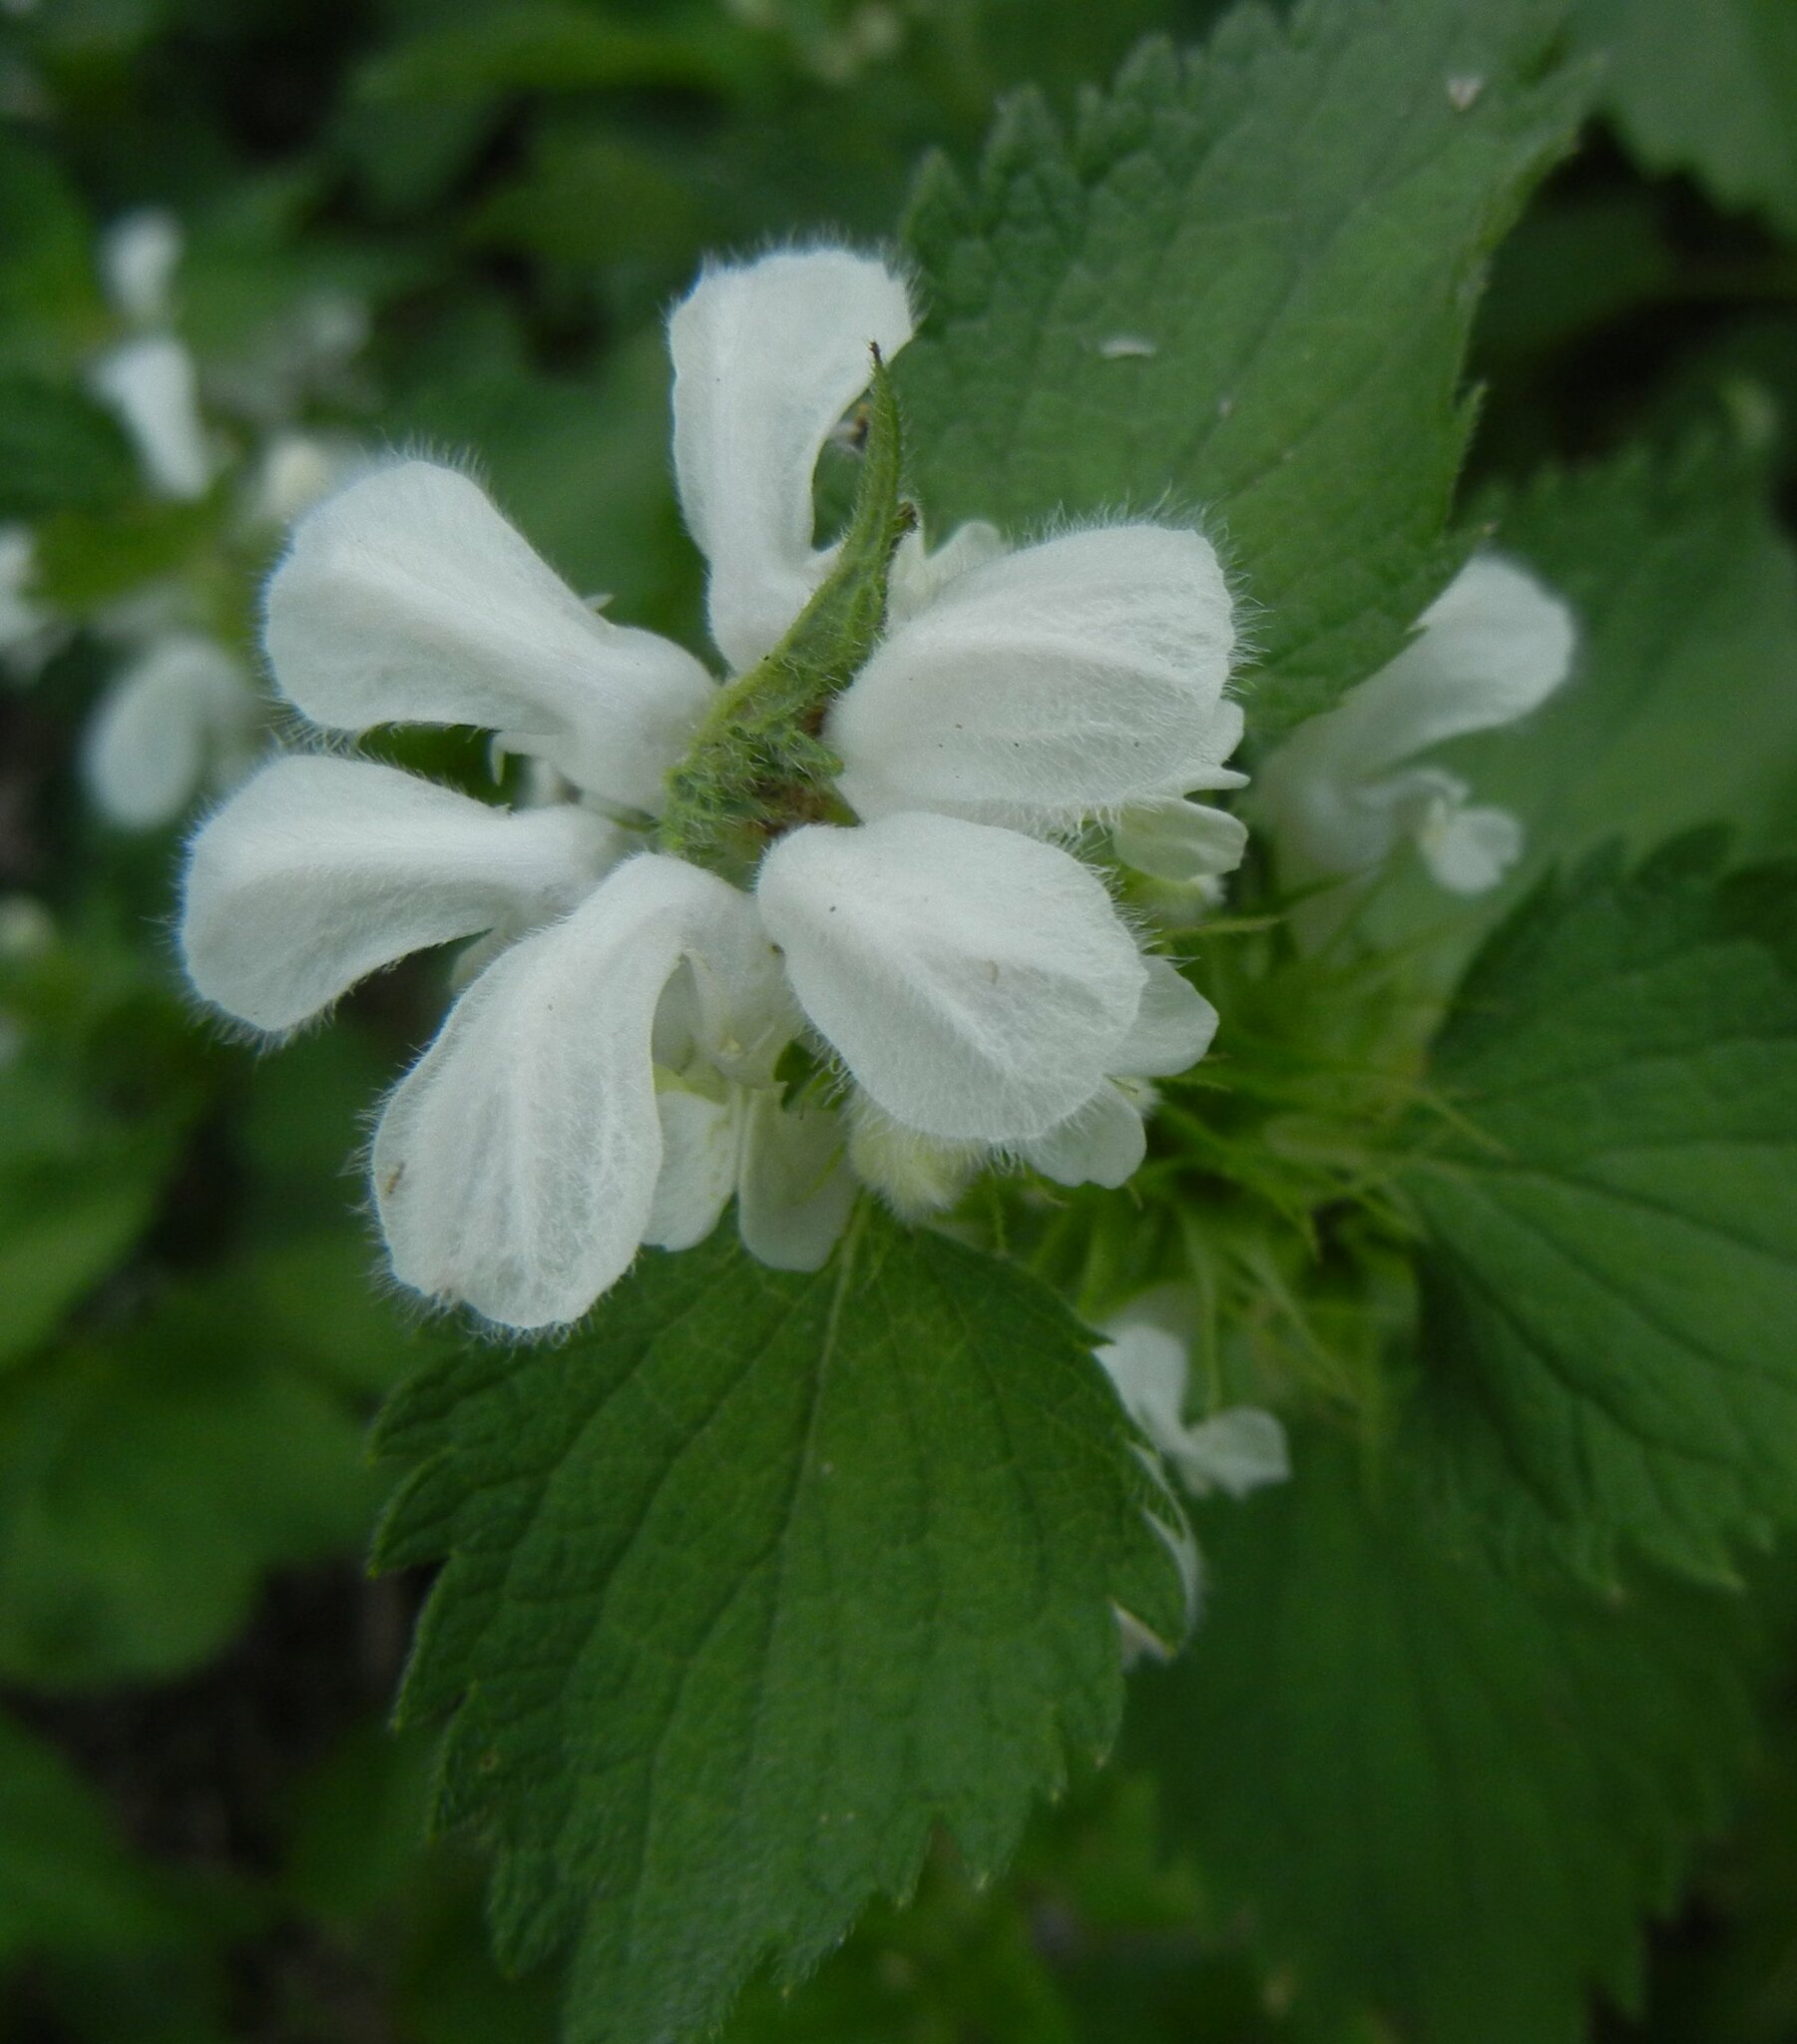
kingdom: Plantae
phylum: Tracheophyta
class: Magnoliopsida
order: Lamiales
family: Lamiaceae
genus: Lamium
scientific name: Lamium album
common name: White dead-nettle
